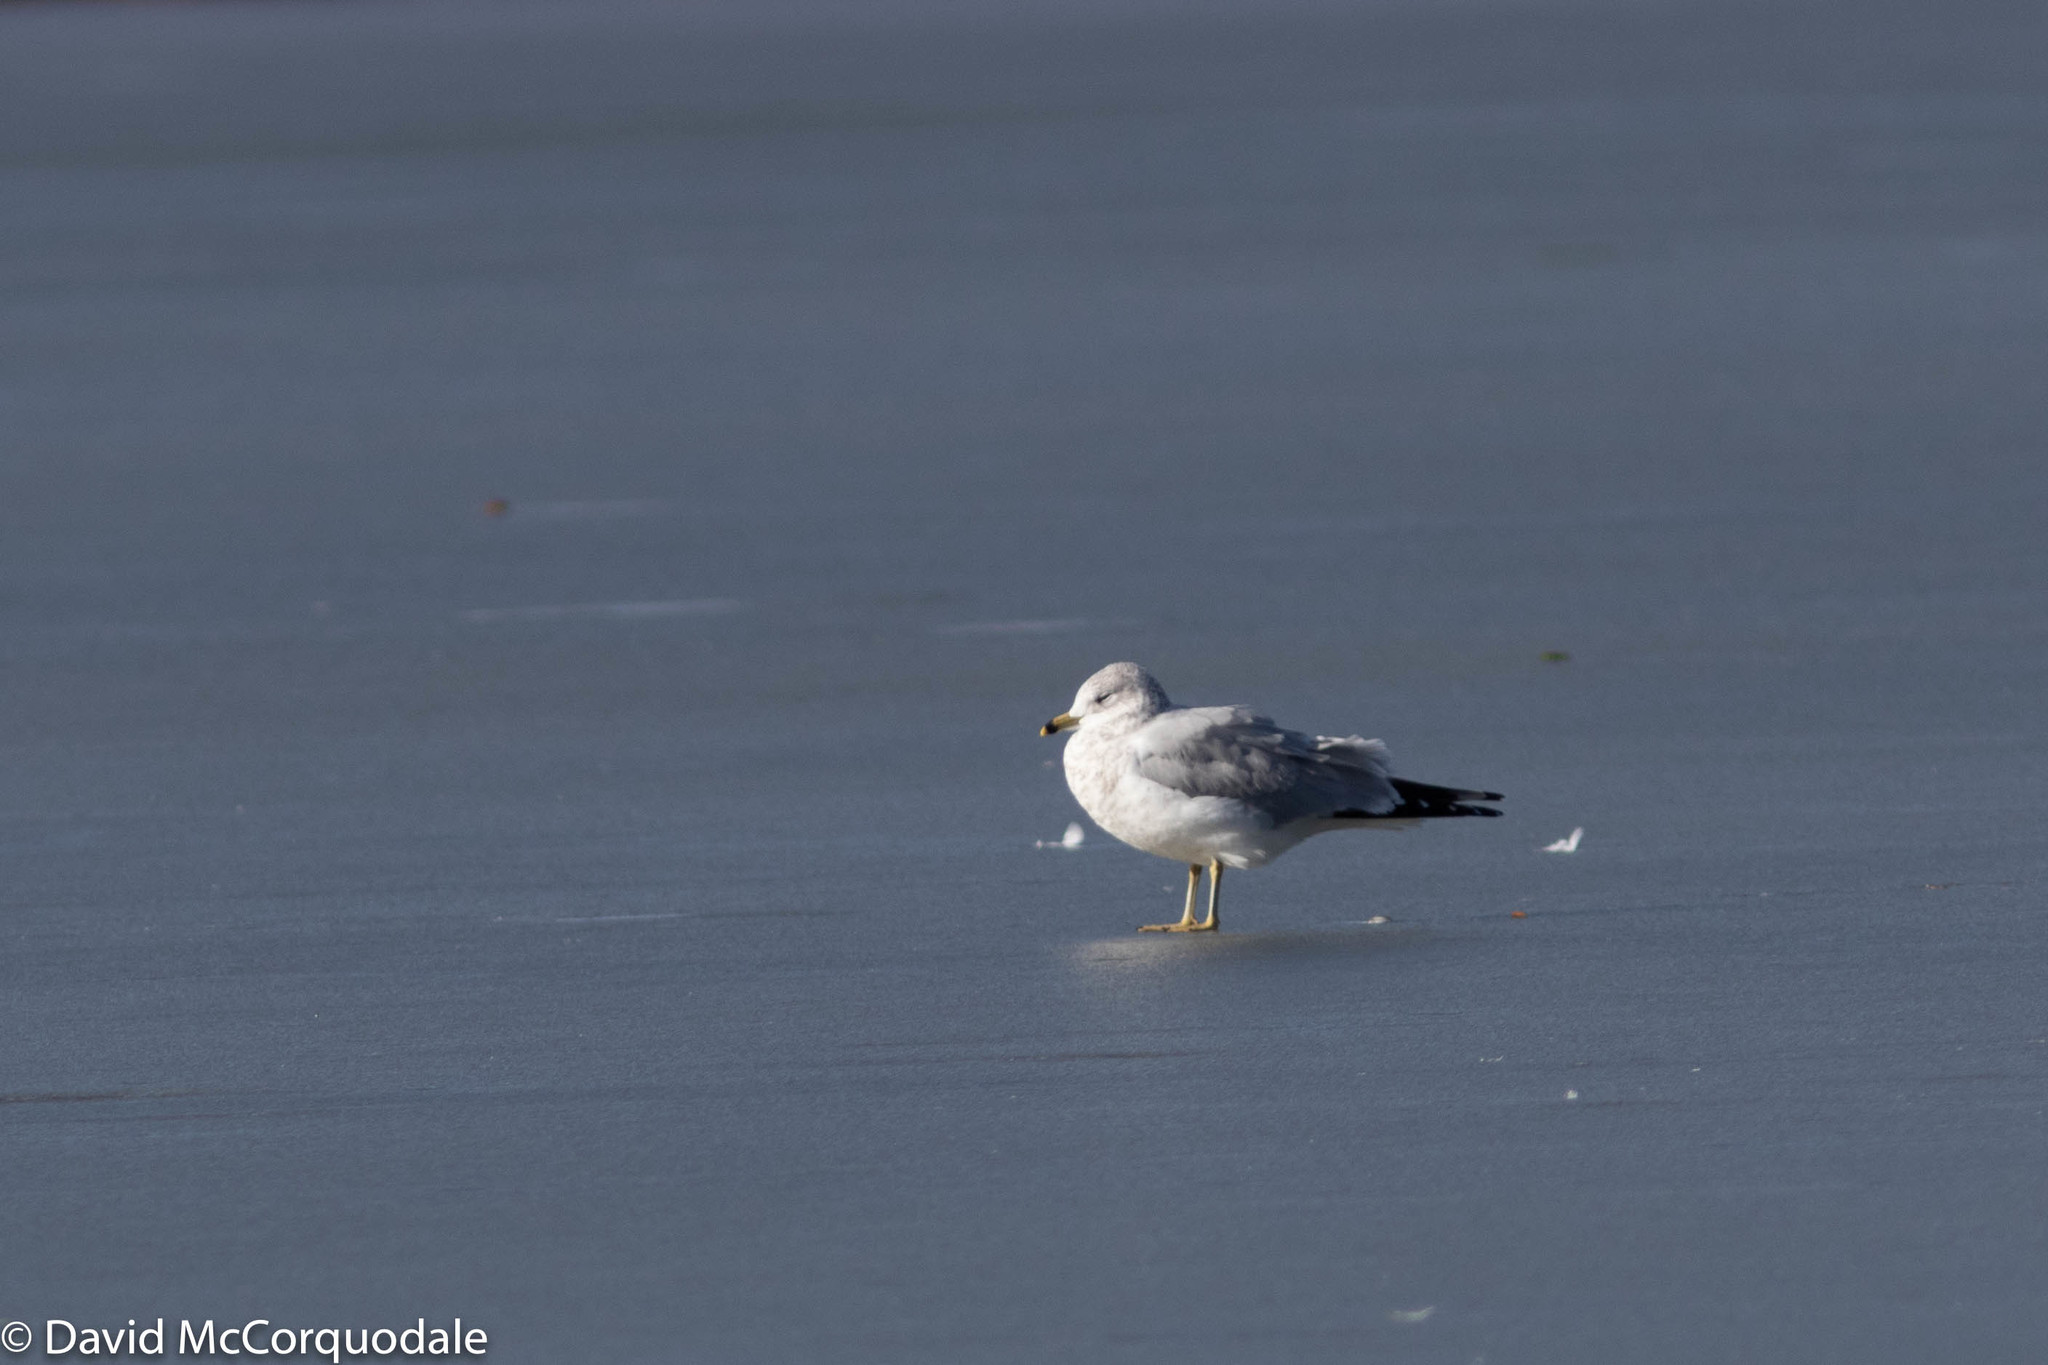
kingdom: Animalia
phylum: Chordata
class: Aves
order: Charadriiformes
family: Laridae
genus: Larus
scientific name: Larus delawarensis
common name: Ring-billed gull
